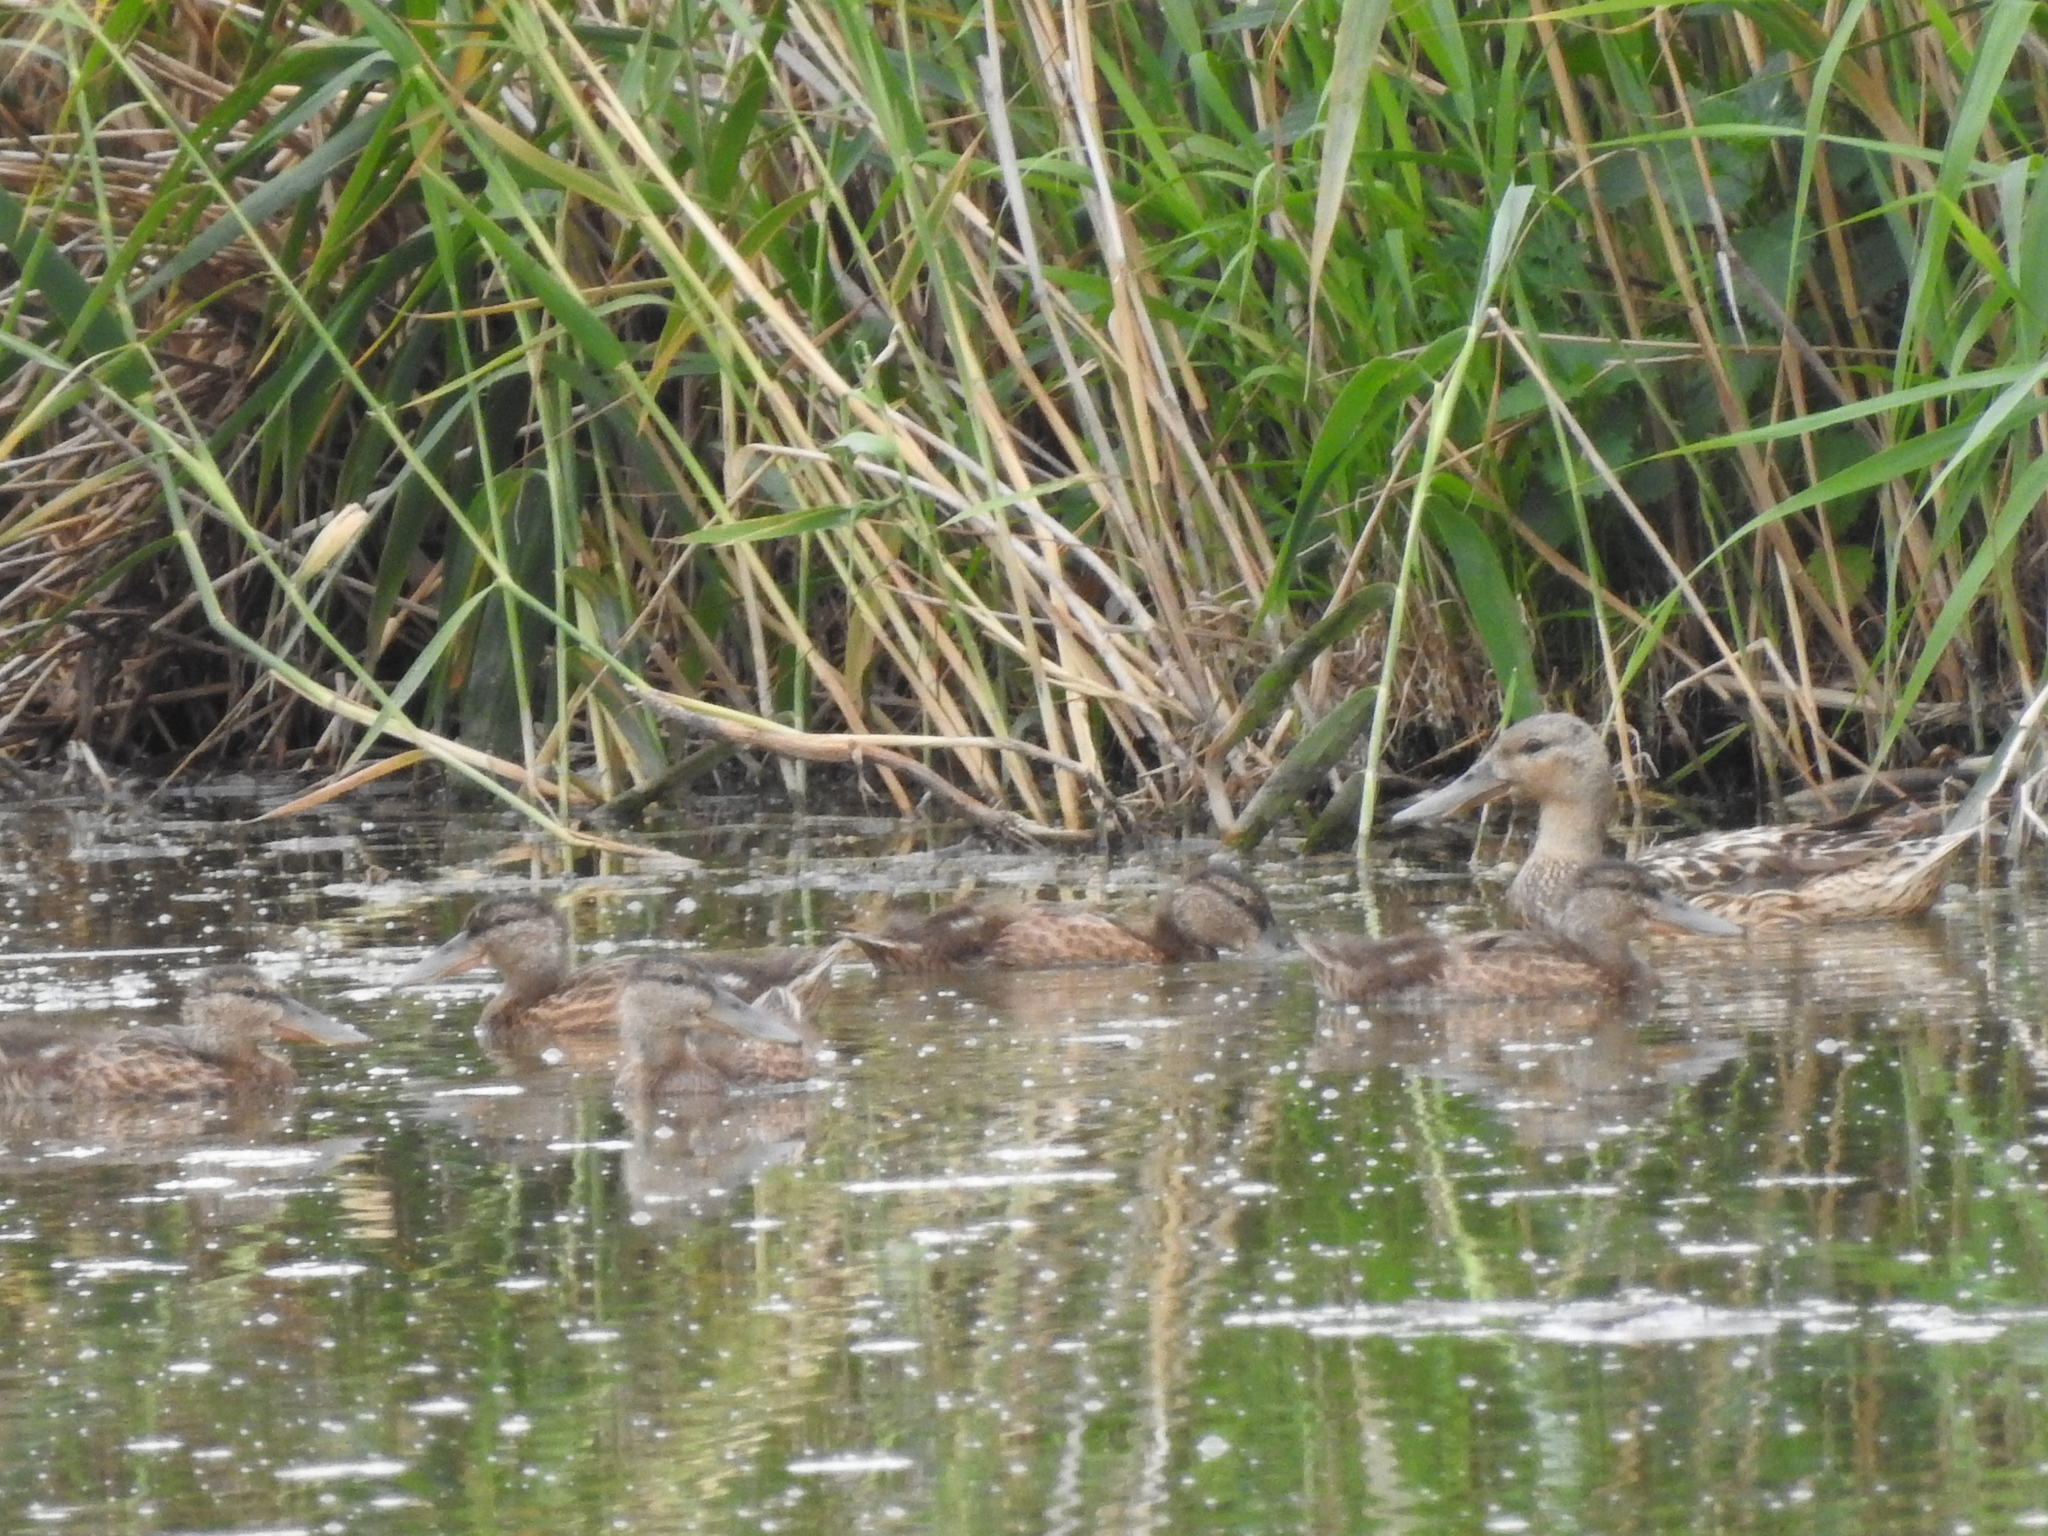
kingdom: Animalia
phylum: Chordata
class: Aves
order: Anseriformes
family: Anatidae
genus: Spatula
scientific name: Spatula clypeata
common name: Northern shoveler
